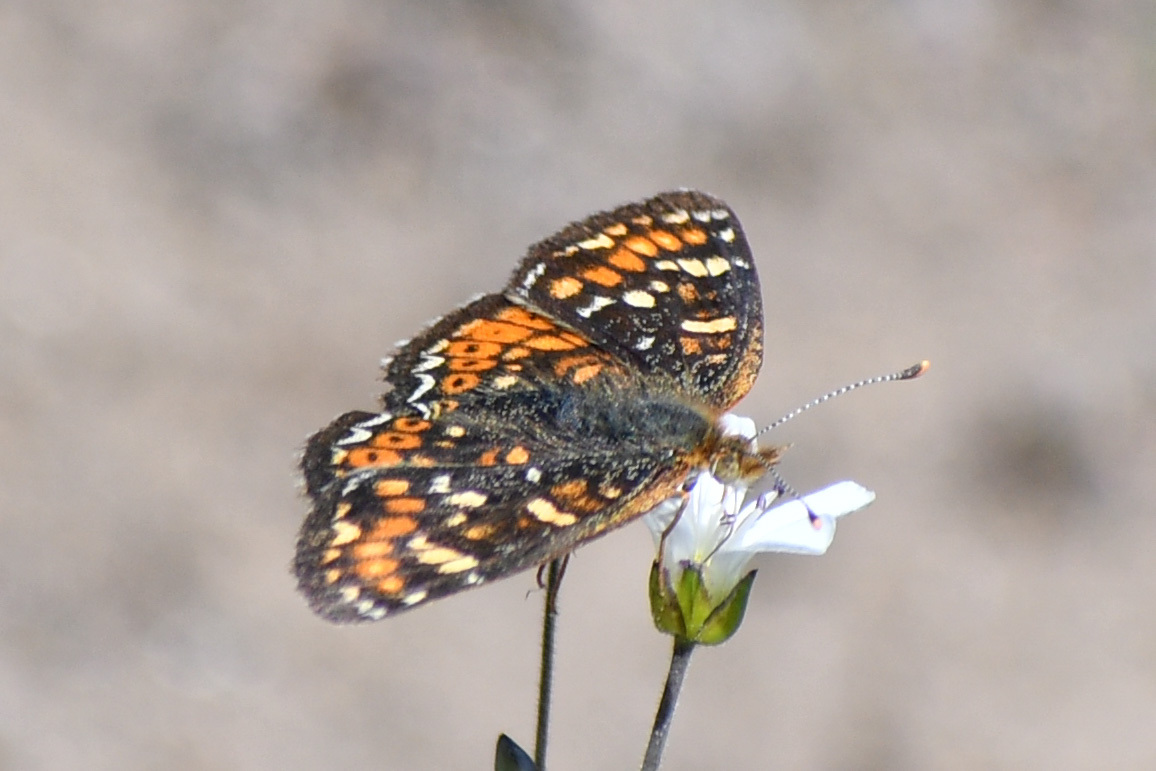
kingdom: Animalia
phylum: Arthropoda
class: Insecta
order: Lepidoptera
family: Nymphalidae
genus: Phyciodes
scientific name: Phyciodes tharos
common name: Pearl crescent
